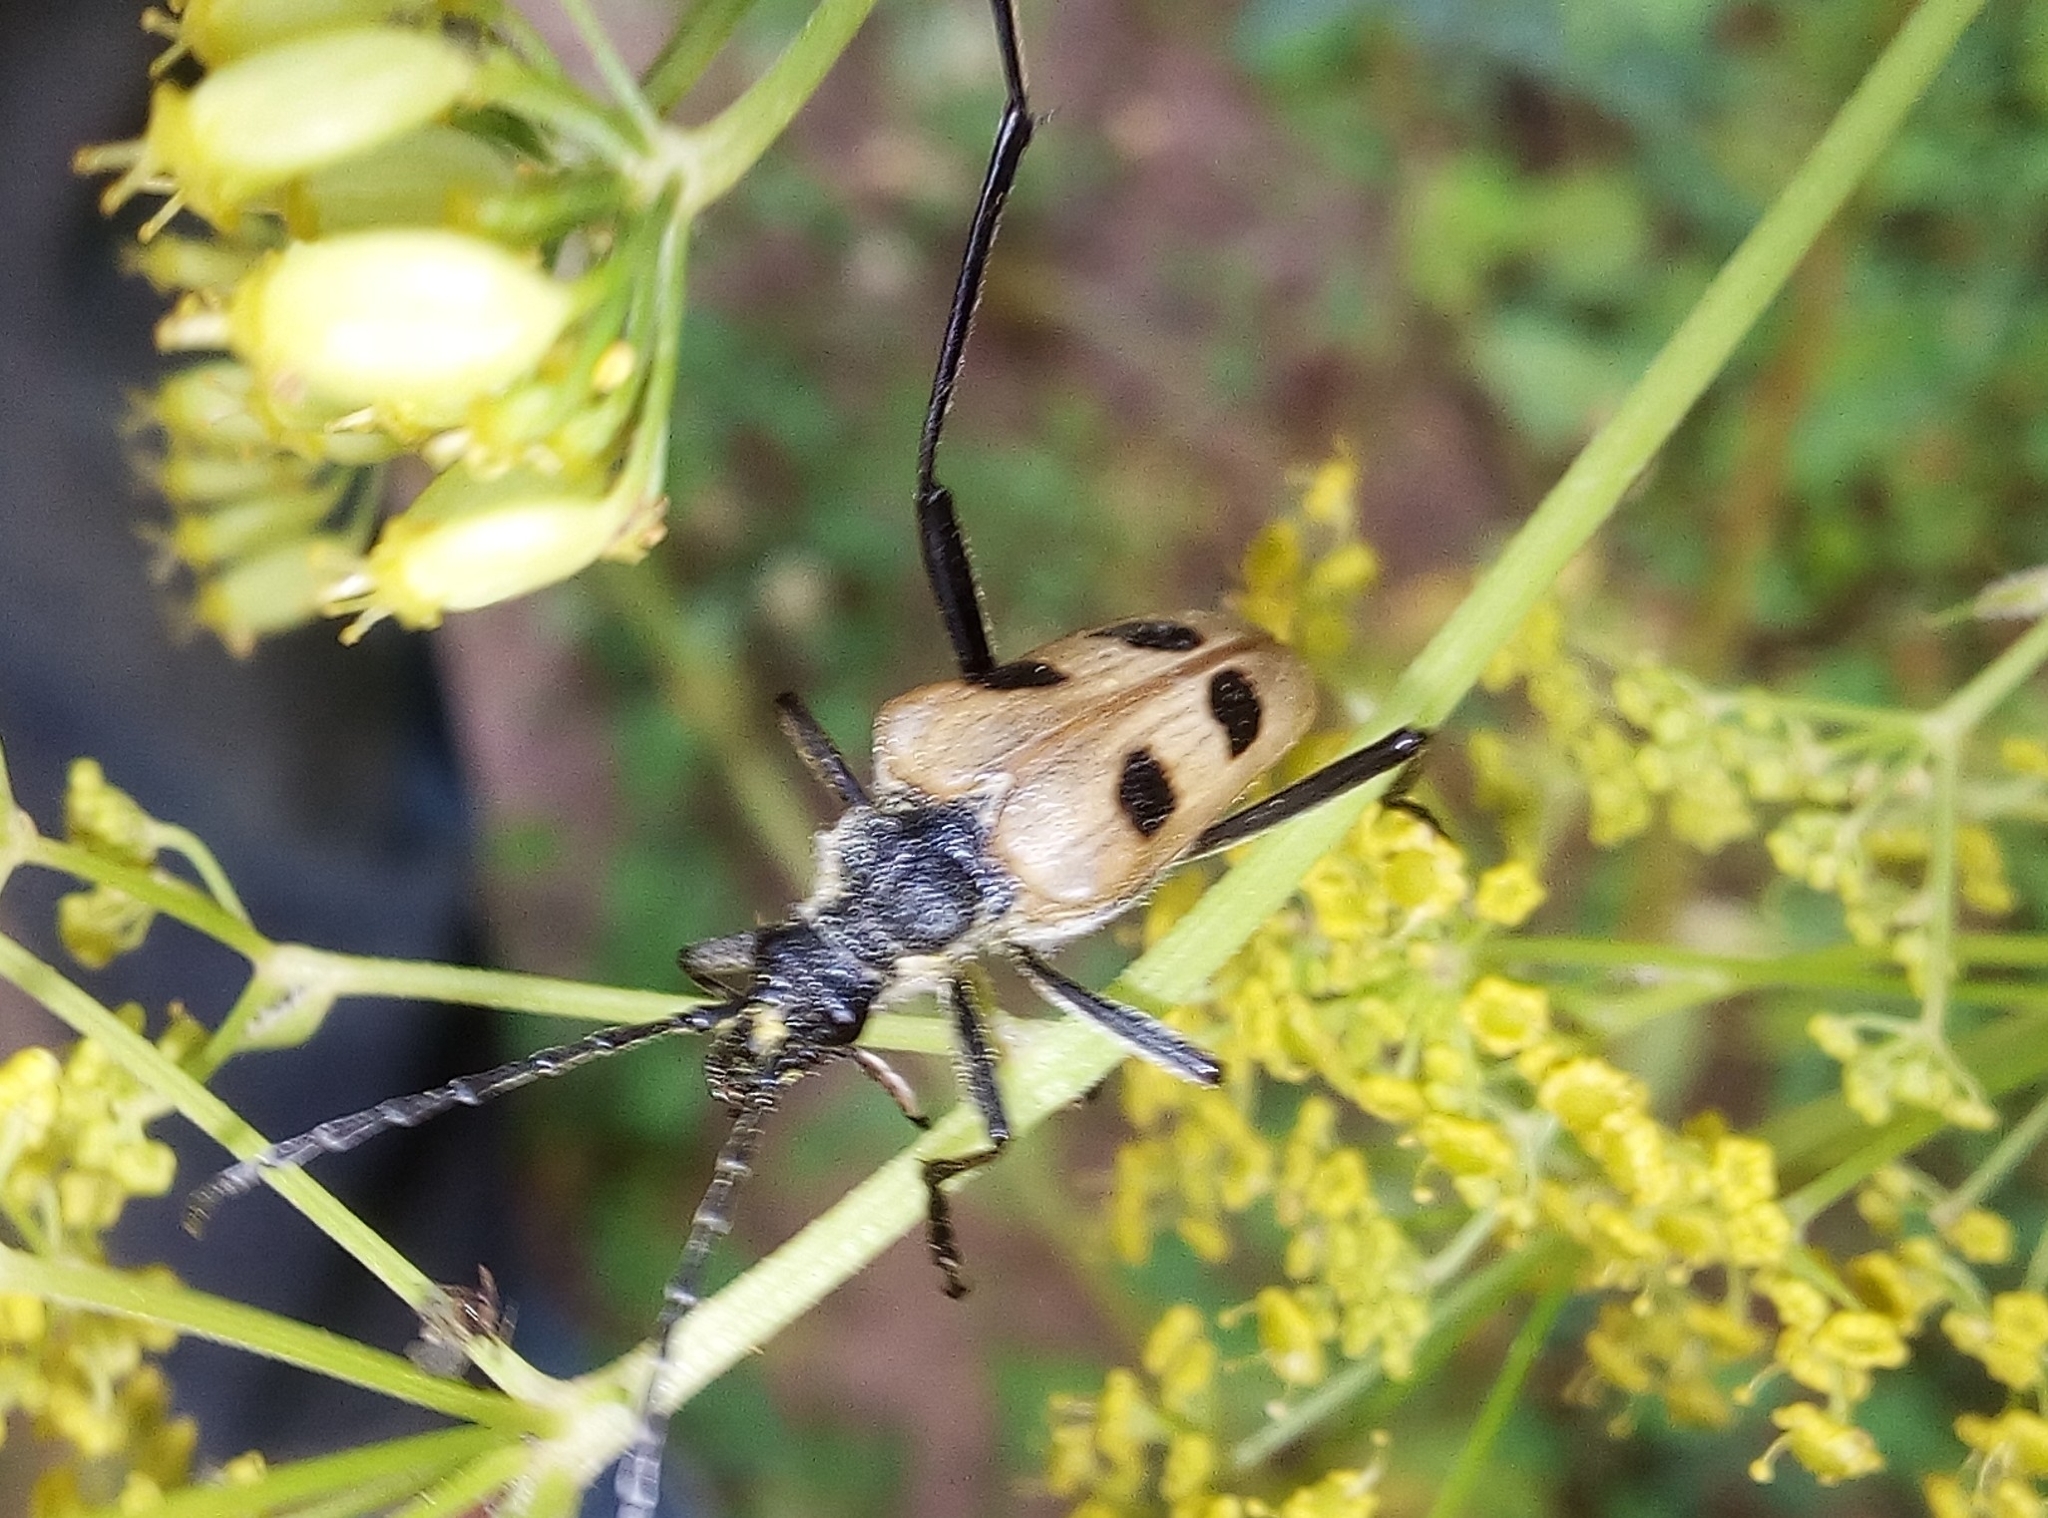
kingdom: Animalia
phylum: Arthropoda
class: Insecta
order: Coleoptera
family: Cerambycidae
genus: Pachyta
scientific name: Pachyta quadrimaculata
